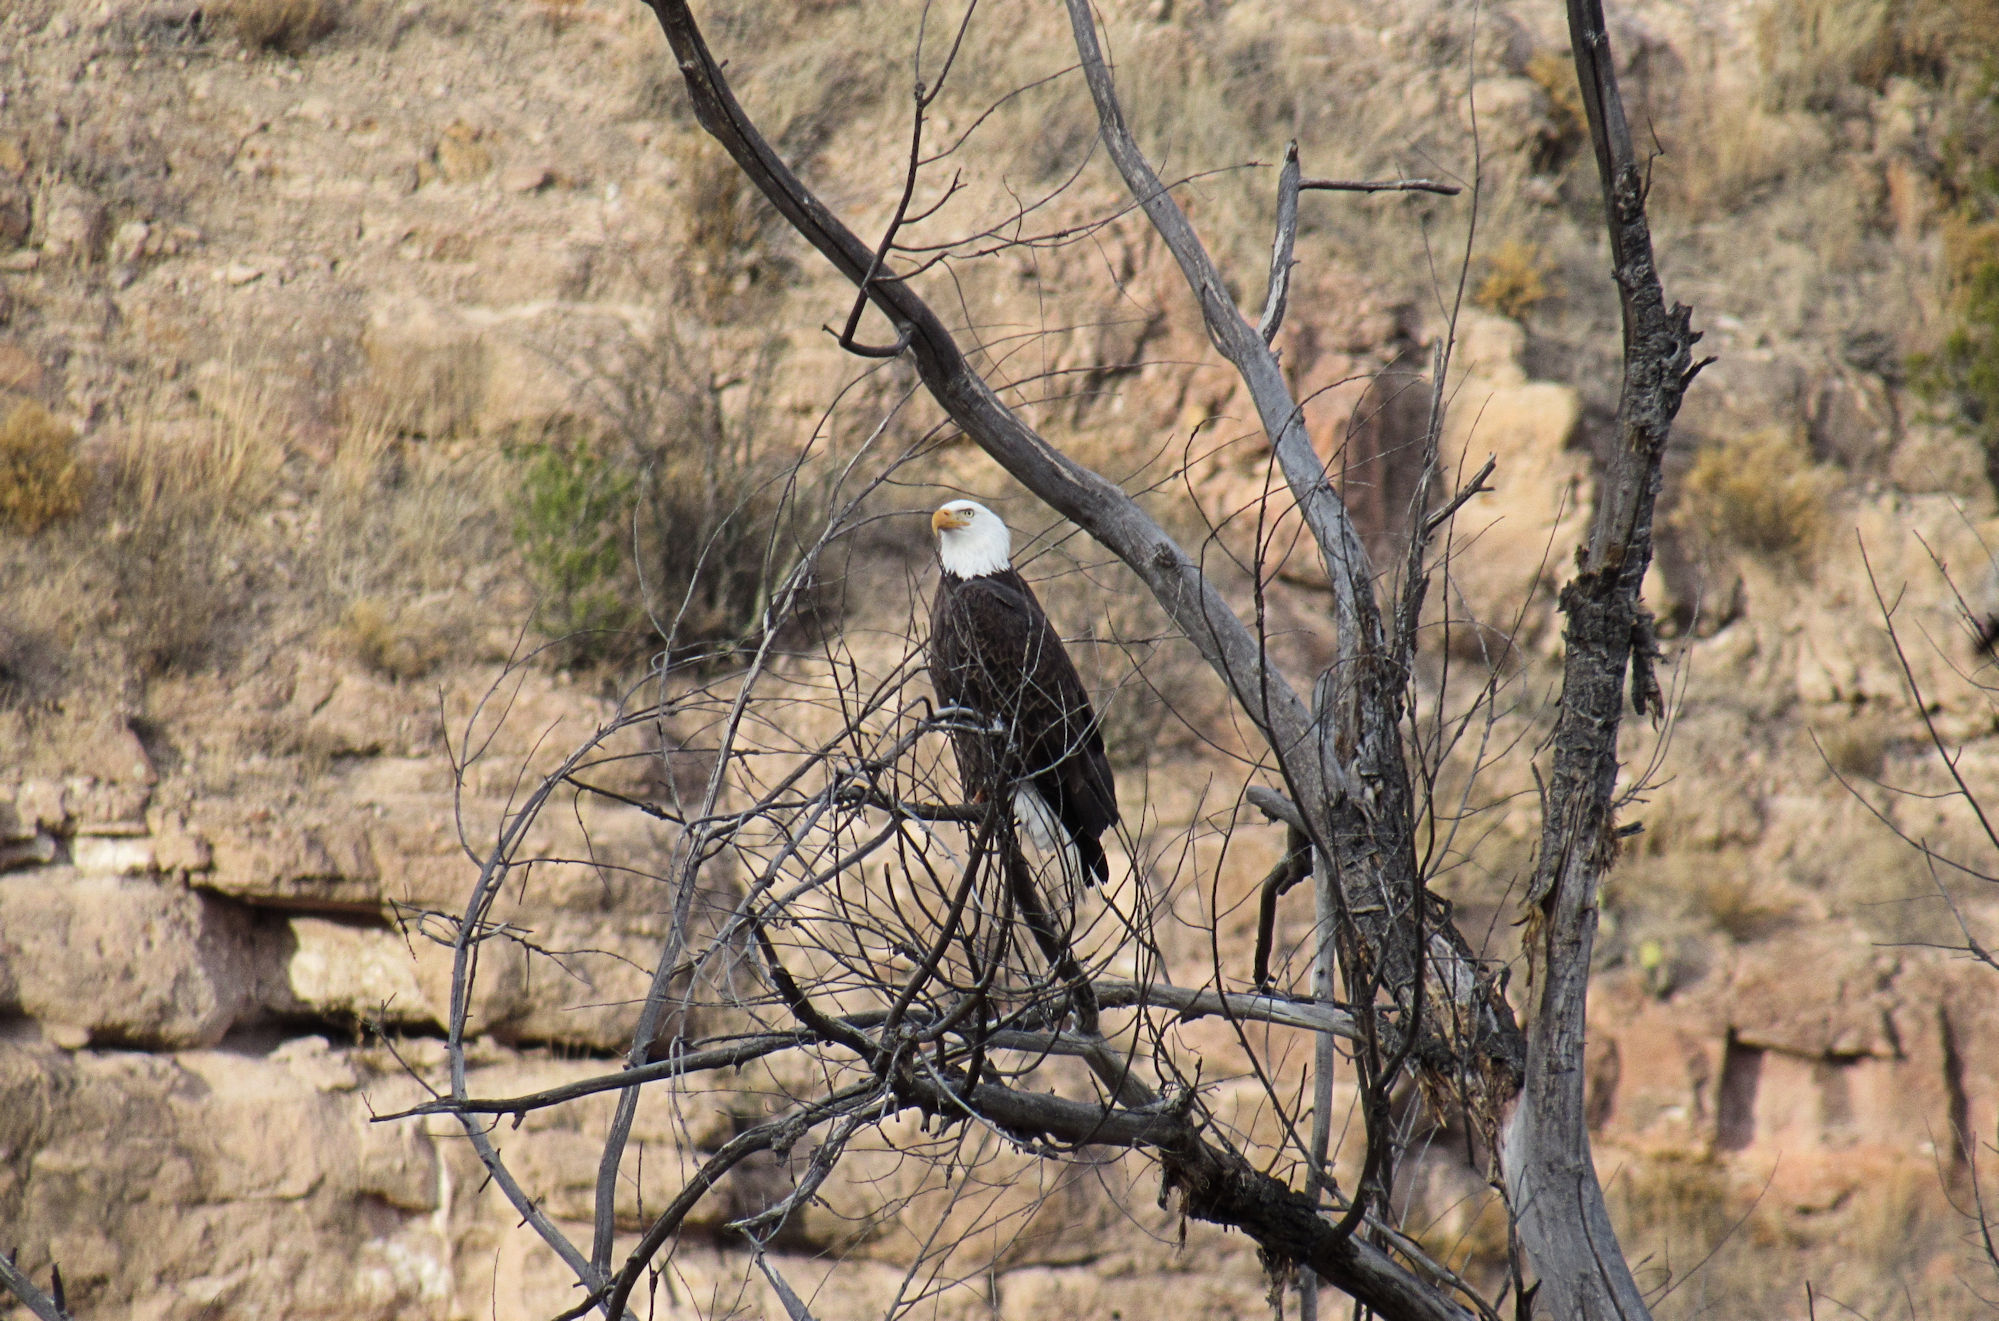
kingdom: Animalia
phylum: Chordata
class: Aves
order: Accipitriformes
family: Accipitridae
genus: Haliaeetus
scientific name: Haliaeetus leucocephalus
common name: Bald eagle
